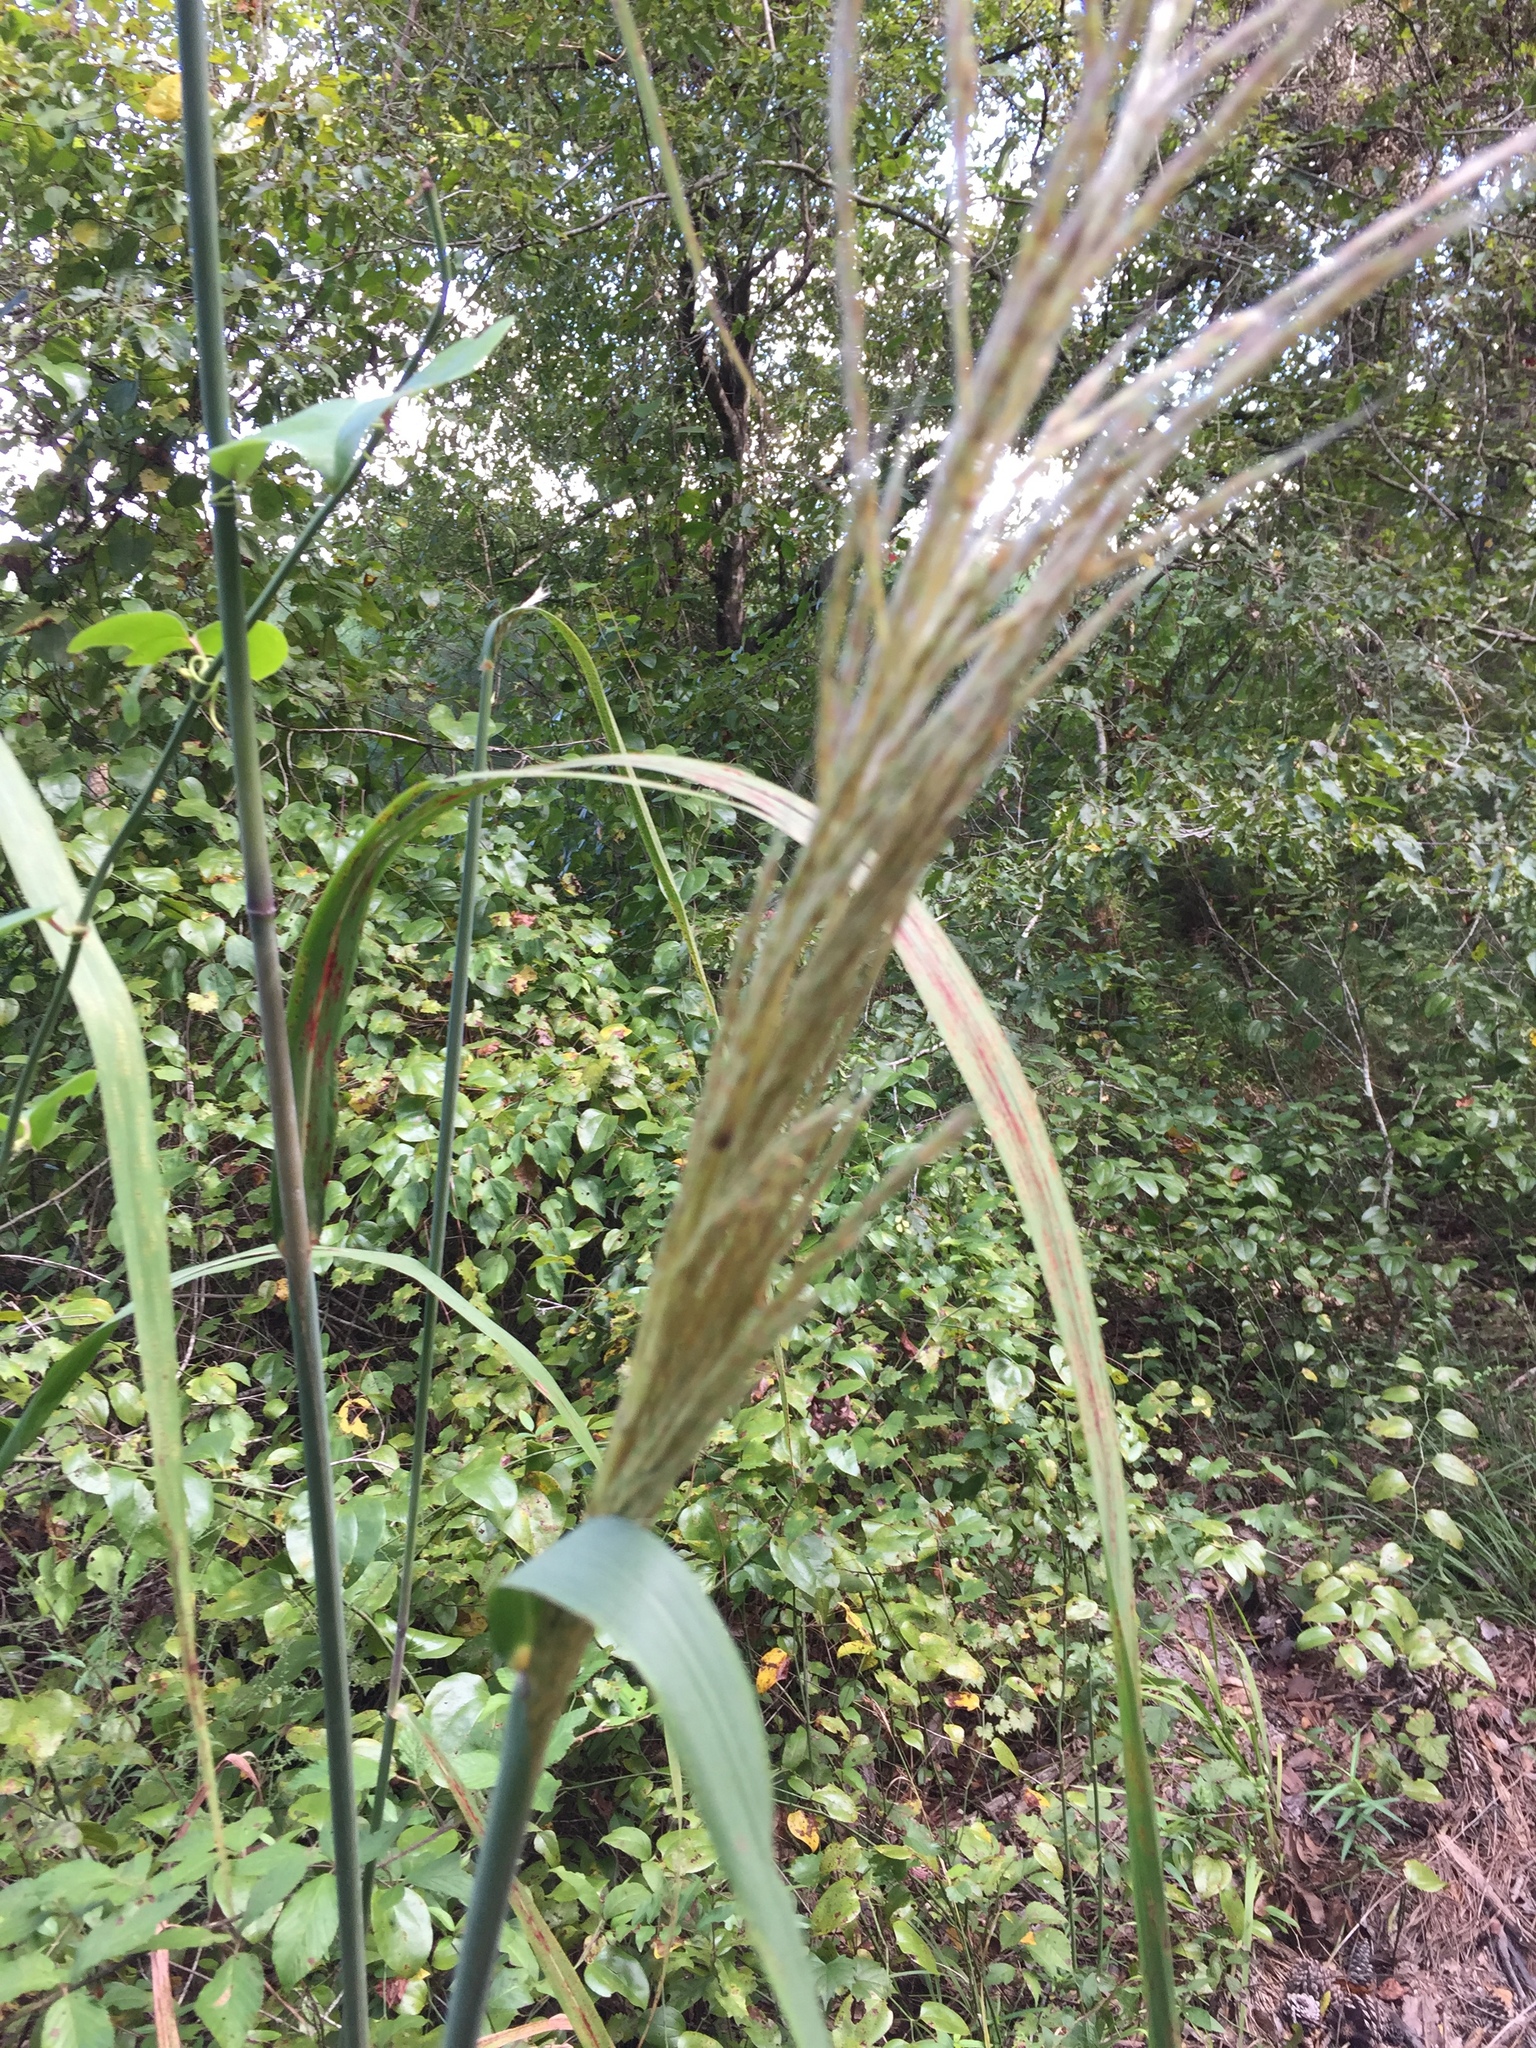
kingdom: Plantae
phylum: Tracheophyta
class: Liliopsida
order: Poales
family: Poaceae
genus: Erianthus
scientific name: Erianthus contortus
